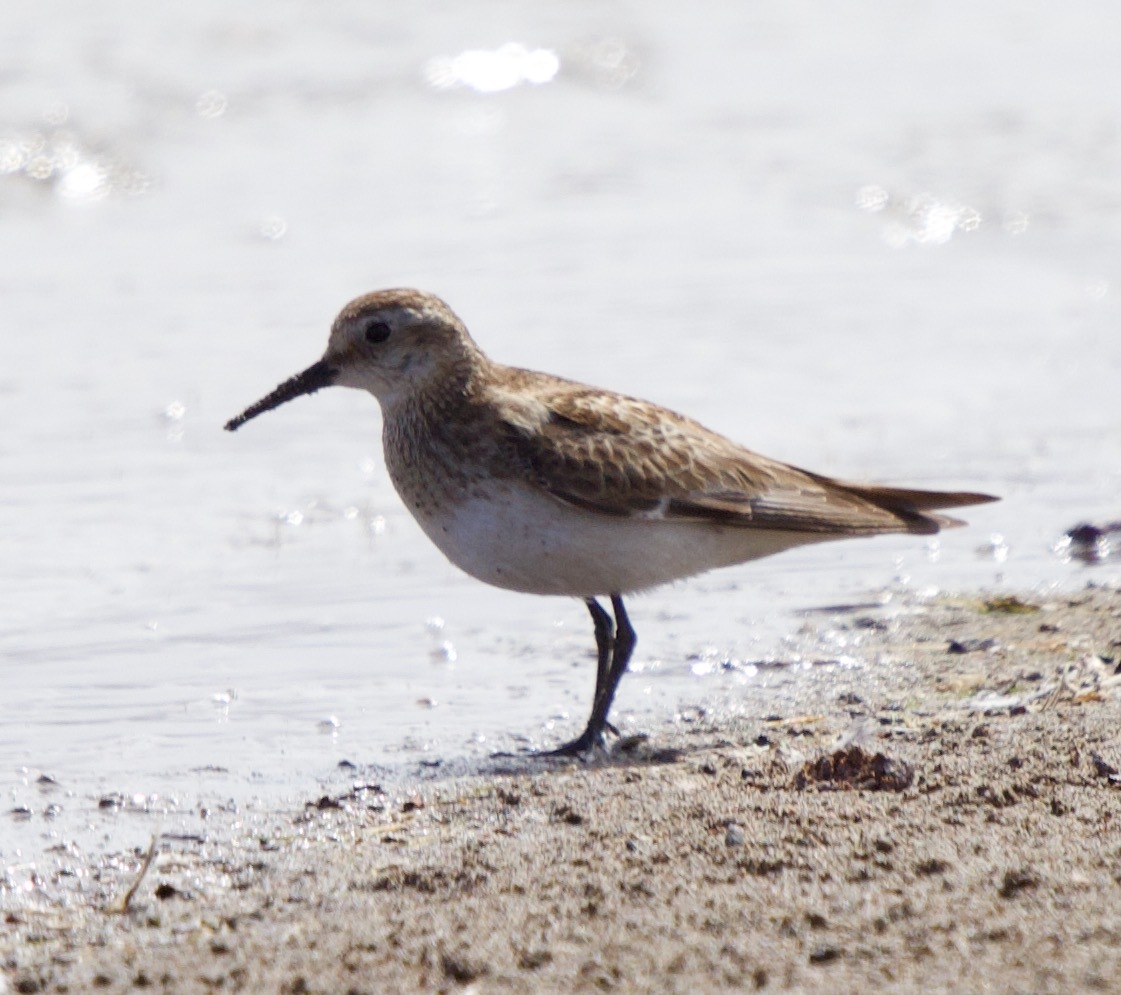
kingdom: Animalia
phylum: Chordata
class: Aves
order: Charadriiformes
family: Scolopacidae
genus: Calidris
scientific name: Calidris bairdii
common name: Baird's sandpiper
